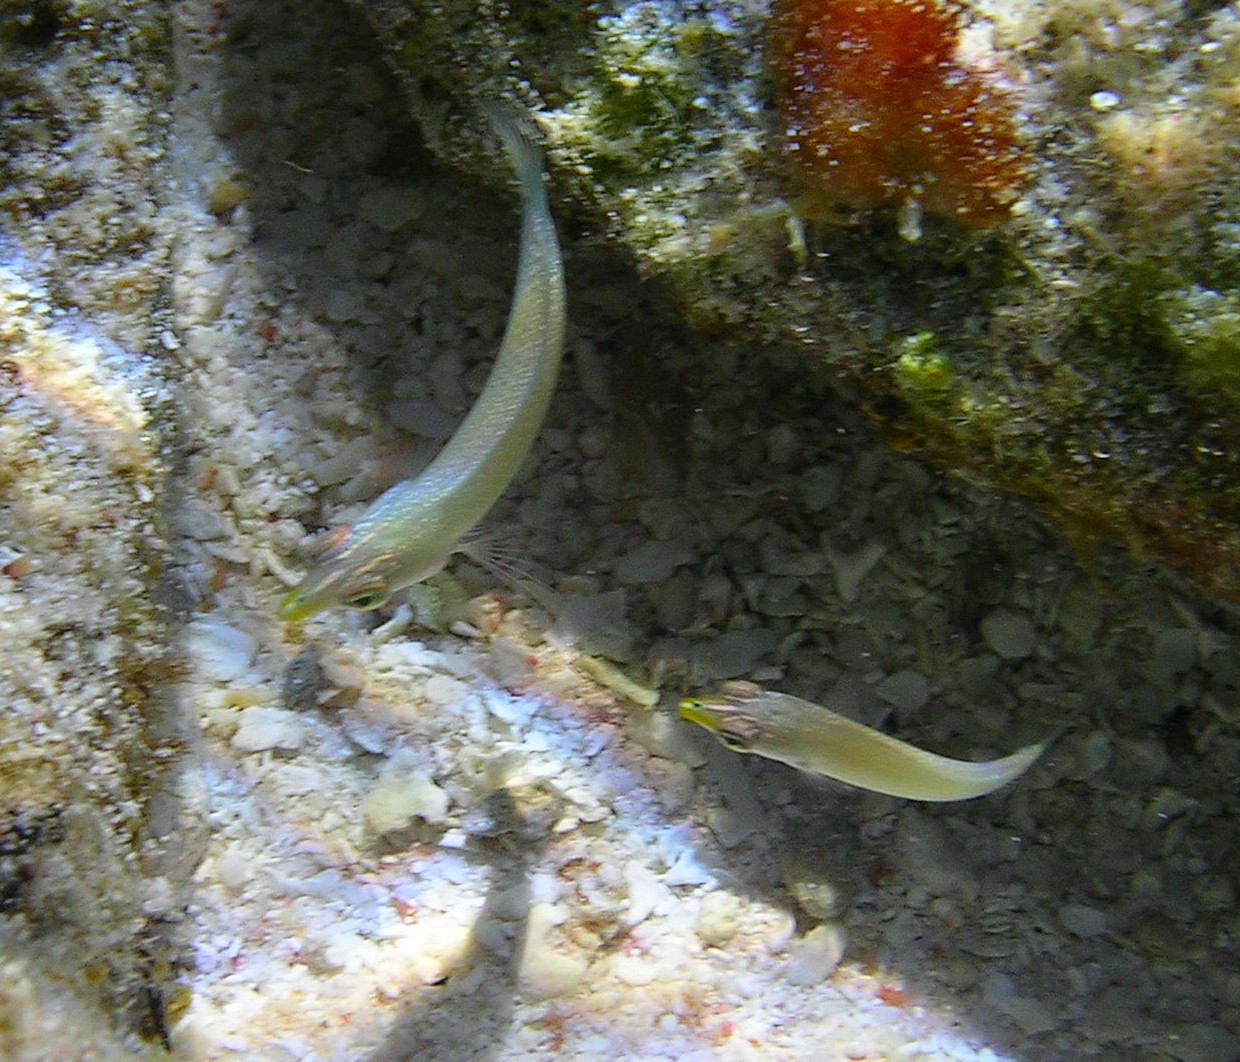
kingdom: Animalia
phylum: Chordata
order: Perciformes
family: Labridae
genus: Halichoeres
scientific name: Halichoeres trimaculatus
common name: Three-spot wrasse
